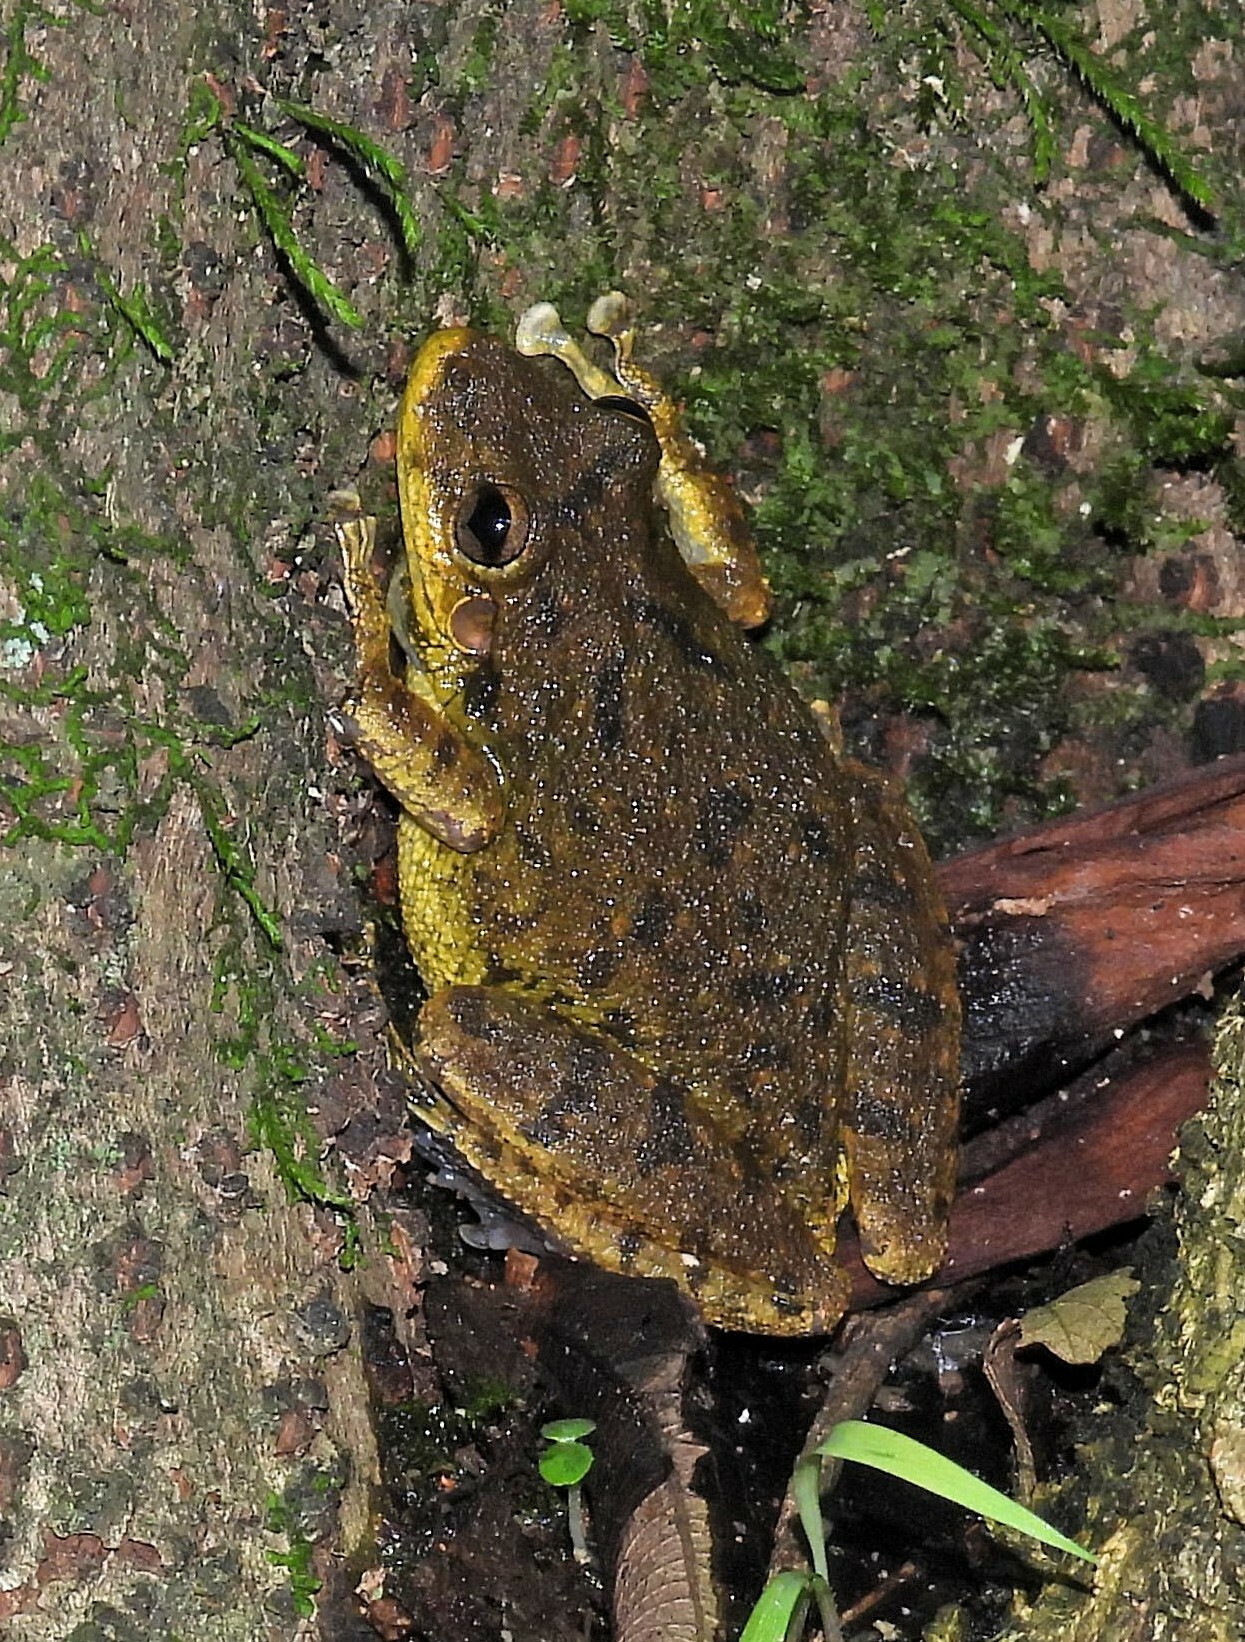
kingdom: Animalia
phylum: Chordata
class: Amphibia
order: Anura
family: Hylidae
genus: Scinax
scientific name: Scinax fuscovarius
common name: Fuscous-blotched treefrog
